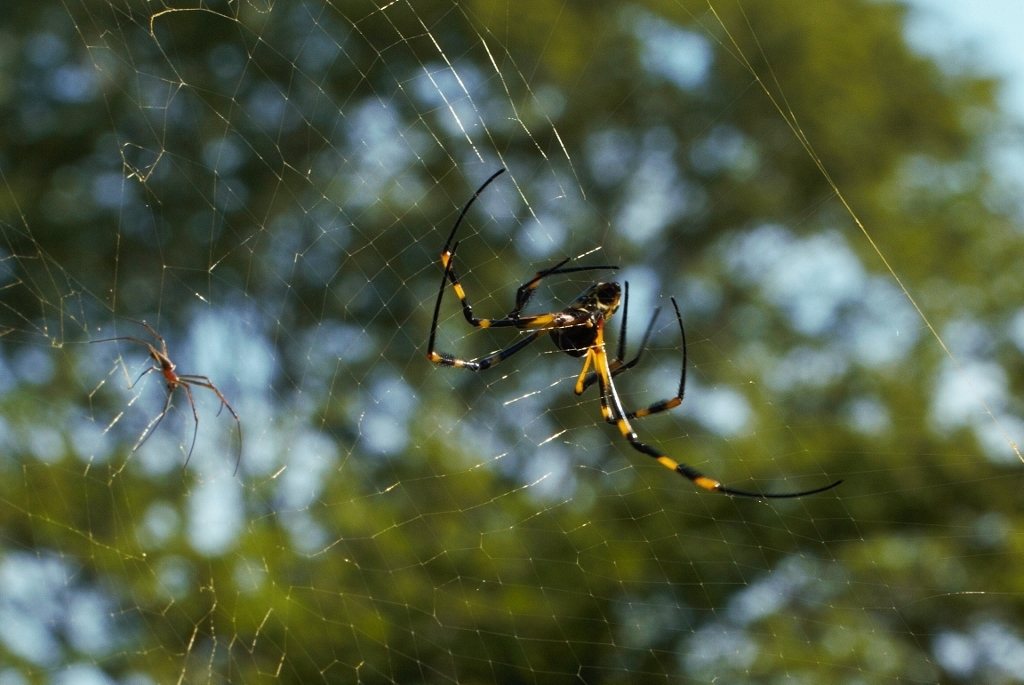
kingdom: Animalia
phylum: Arthropoda
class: Arachnida
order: Araneae
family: Araneidae
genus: Trichonephila
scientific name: Trichonephila senegalensis
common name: Banded golden orb weaver
